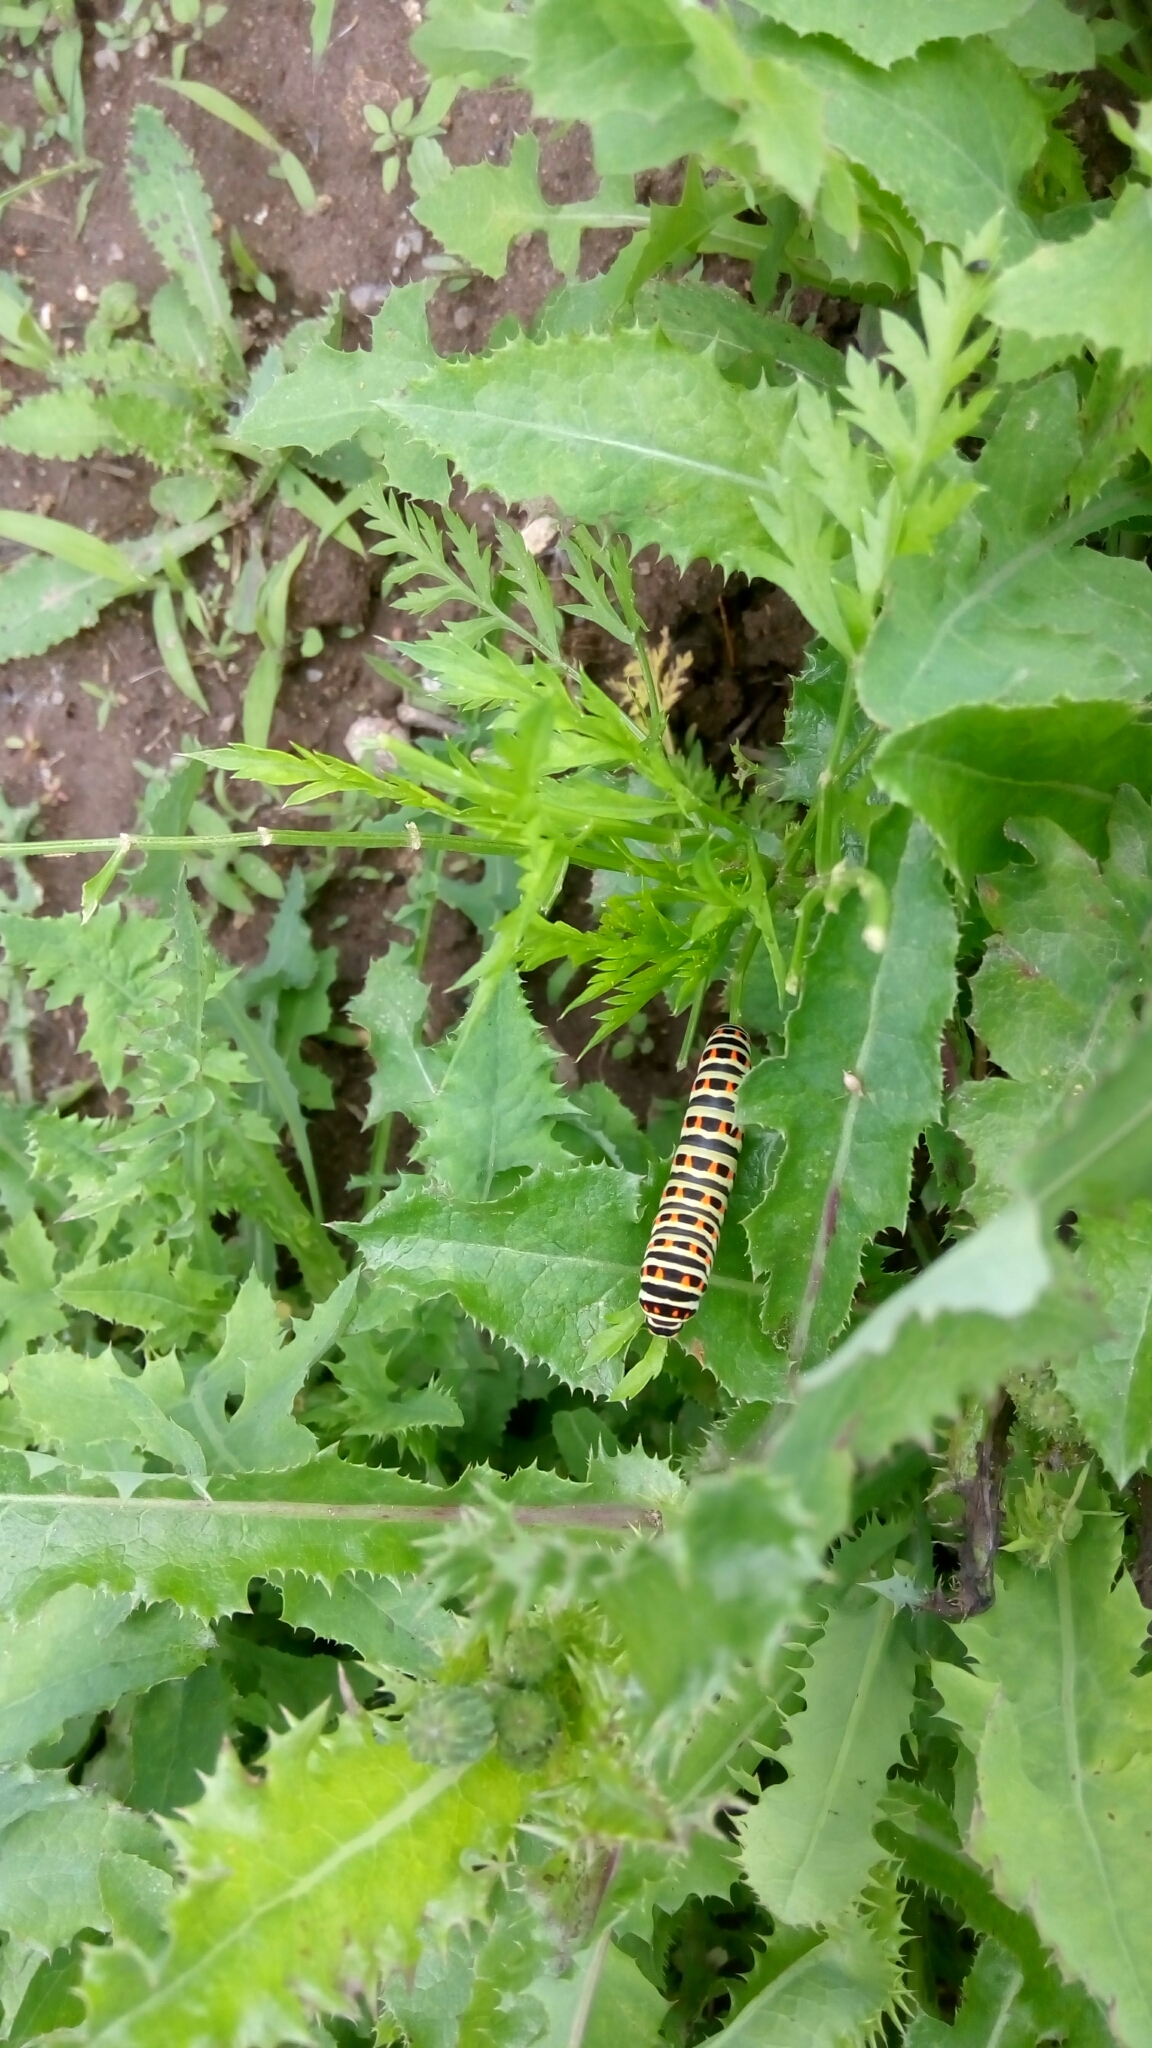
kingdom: Animalia
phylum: Arthropoda
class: Insecta
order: Lepidoptera
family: Papilionidae
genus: Papilio
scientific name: Papilio machaon
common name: Swallowtail
